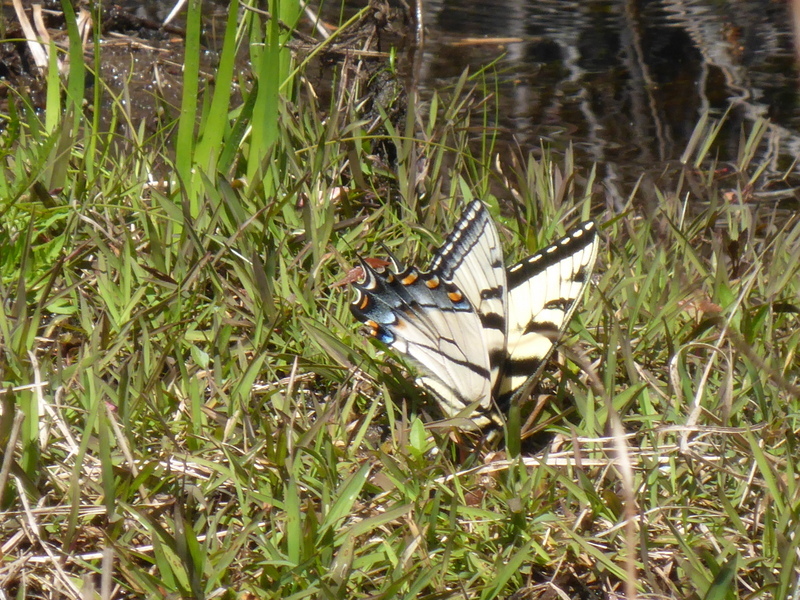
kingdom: Animalia
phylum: Arthropoda
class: Insecta
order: Lepidoptera
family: Papilionidae
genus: Papilio
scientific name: Papilio glaucus
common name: Tiger swallowtail
